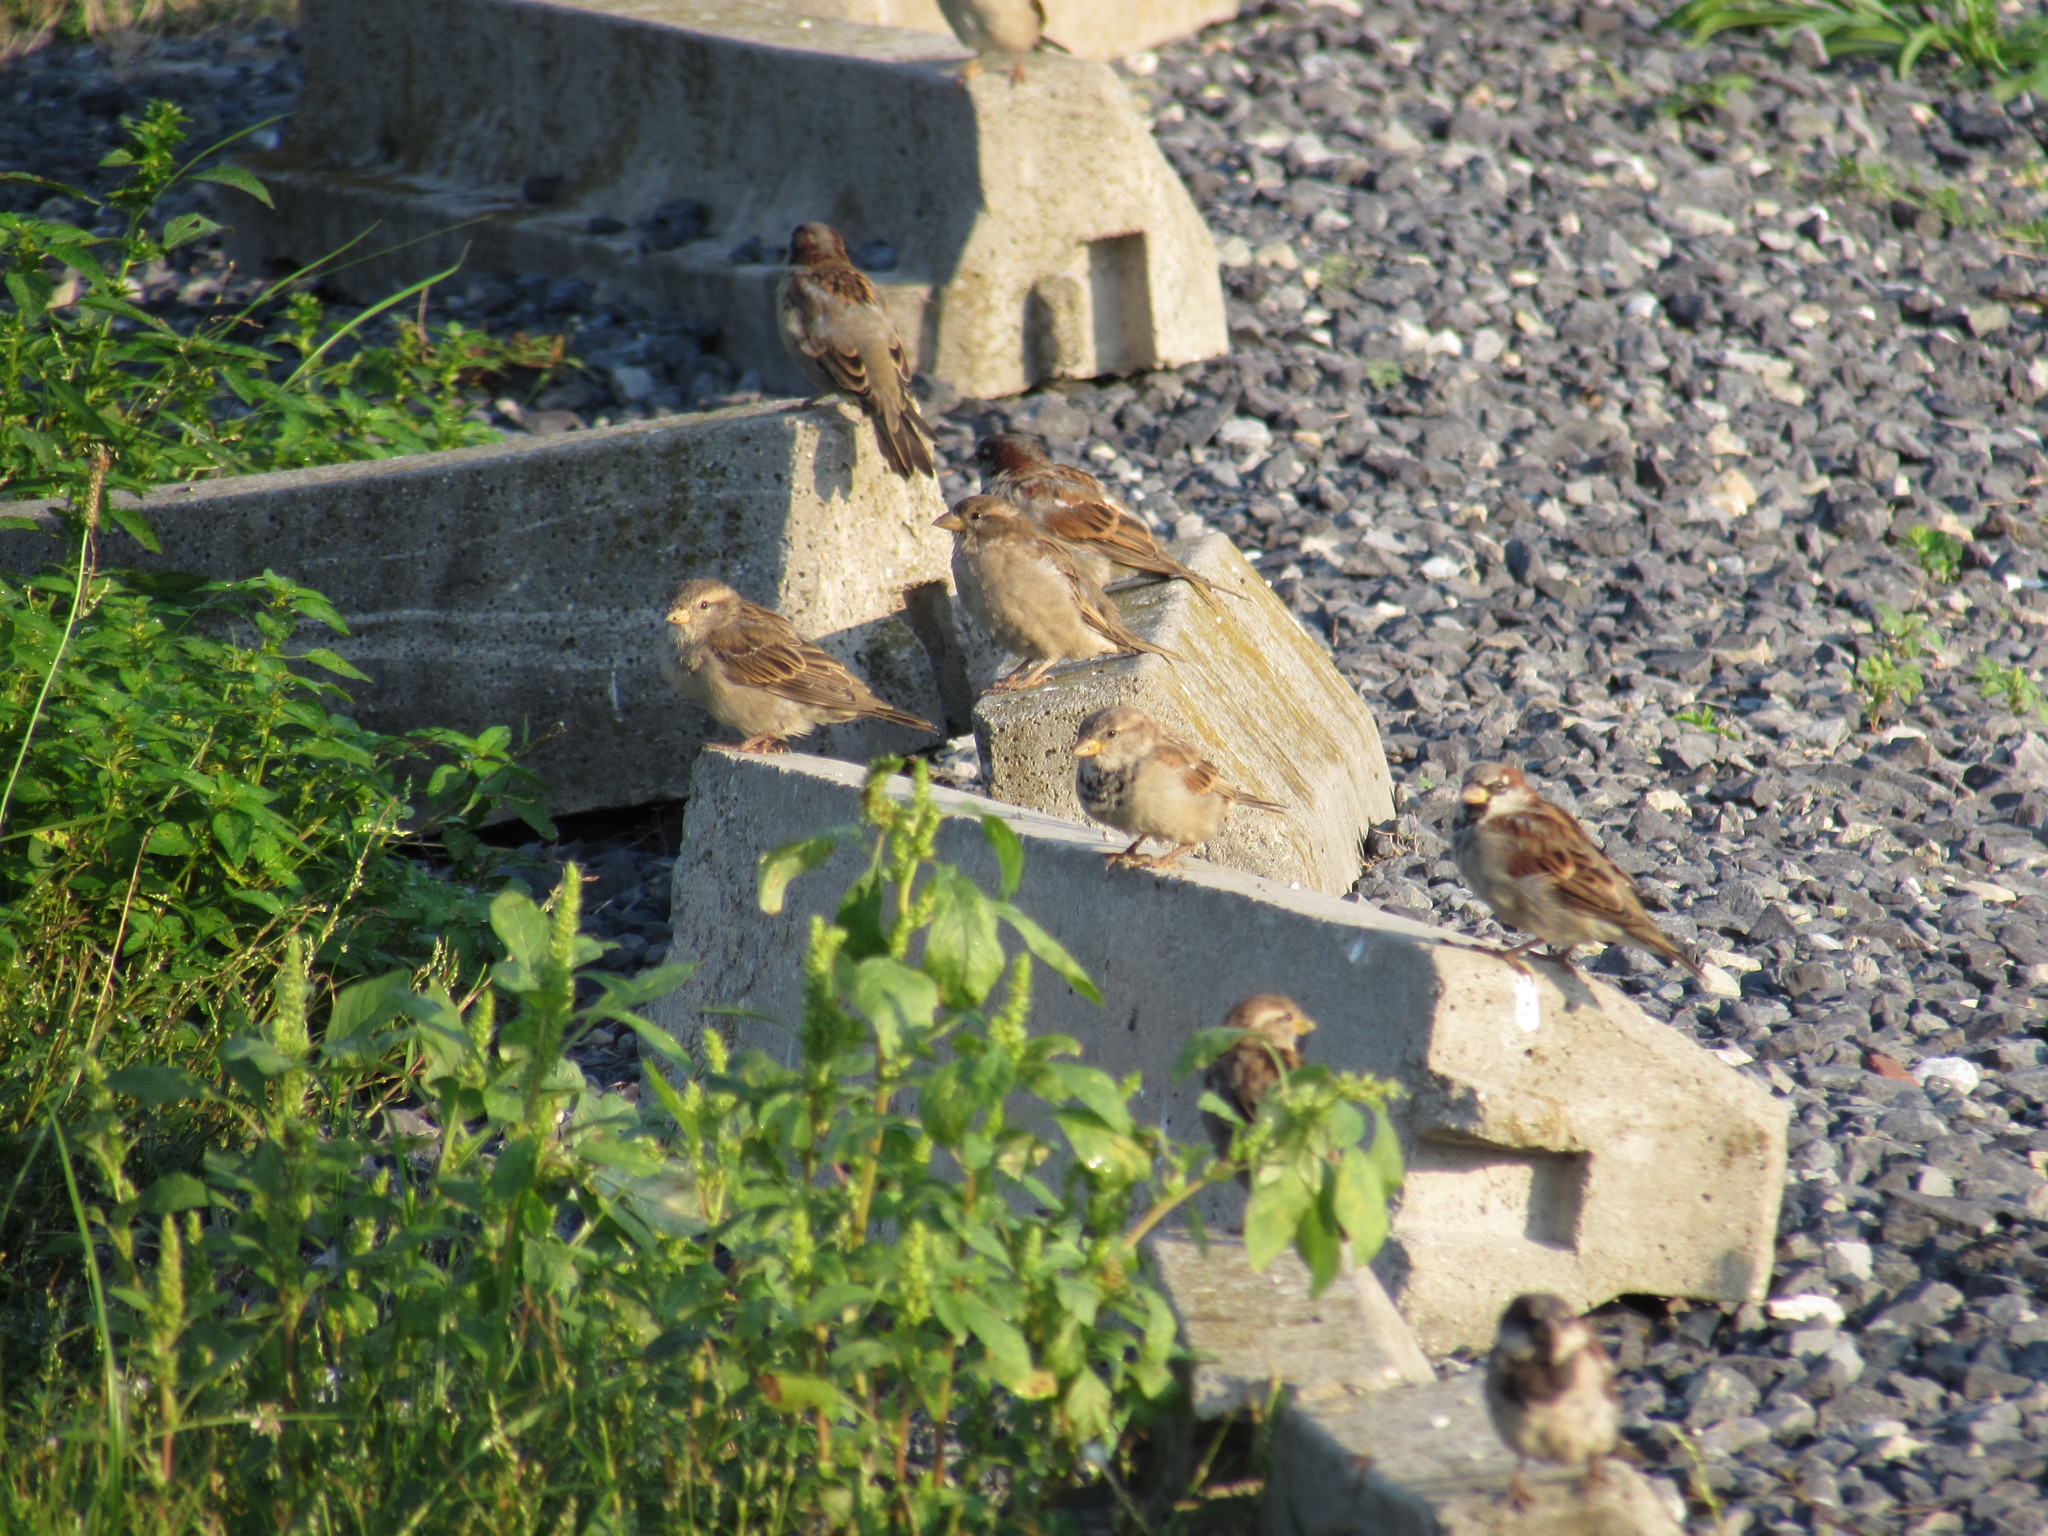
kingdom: Animalia
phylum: Chordata
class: Aves
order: Passeriformes
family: Passeridae
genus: Passer
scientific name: Passer domesticus
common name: House sparrow
